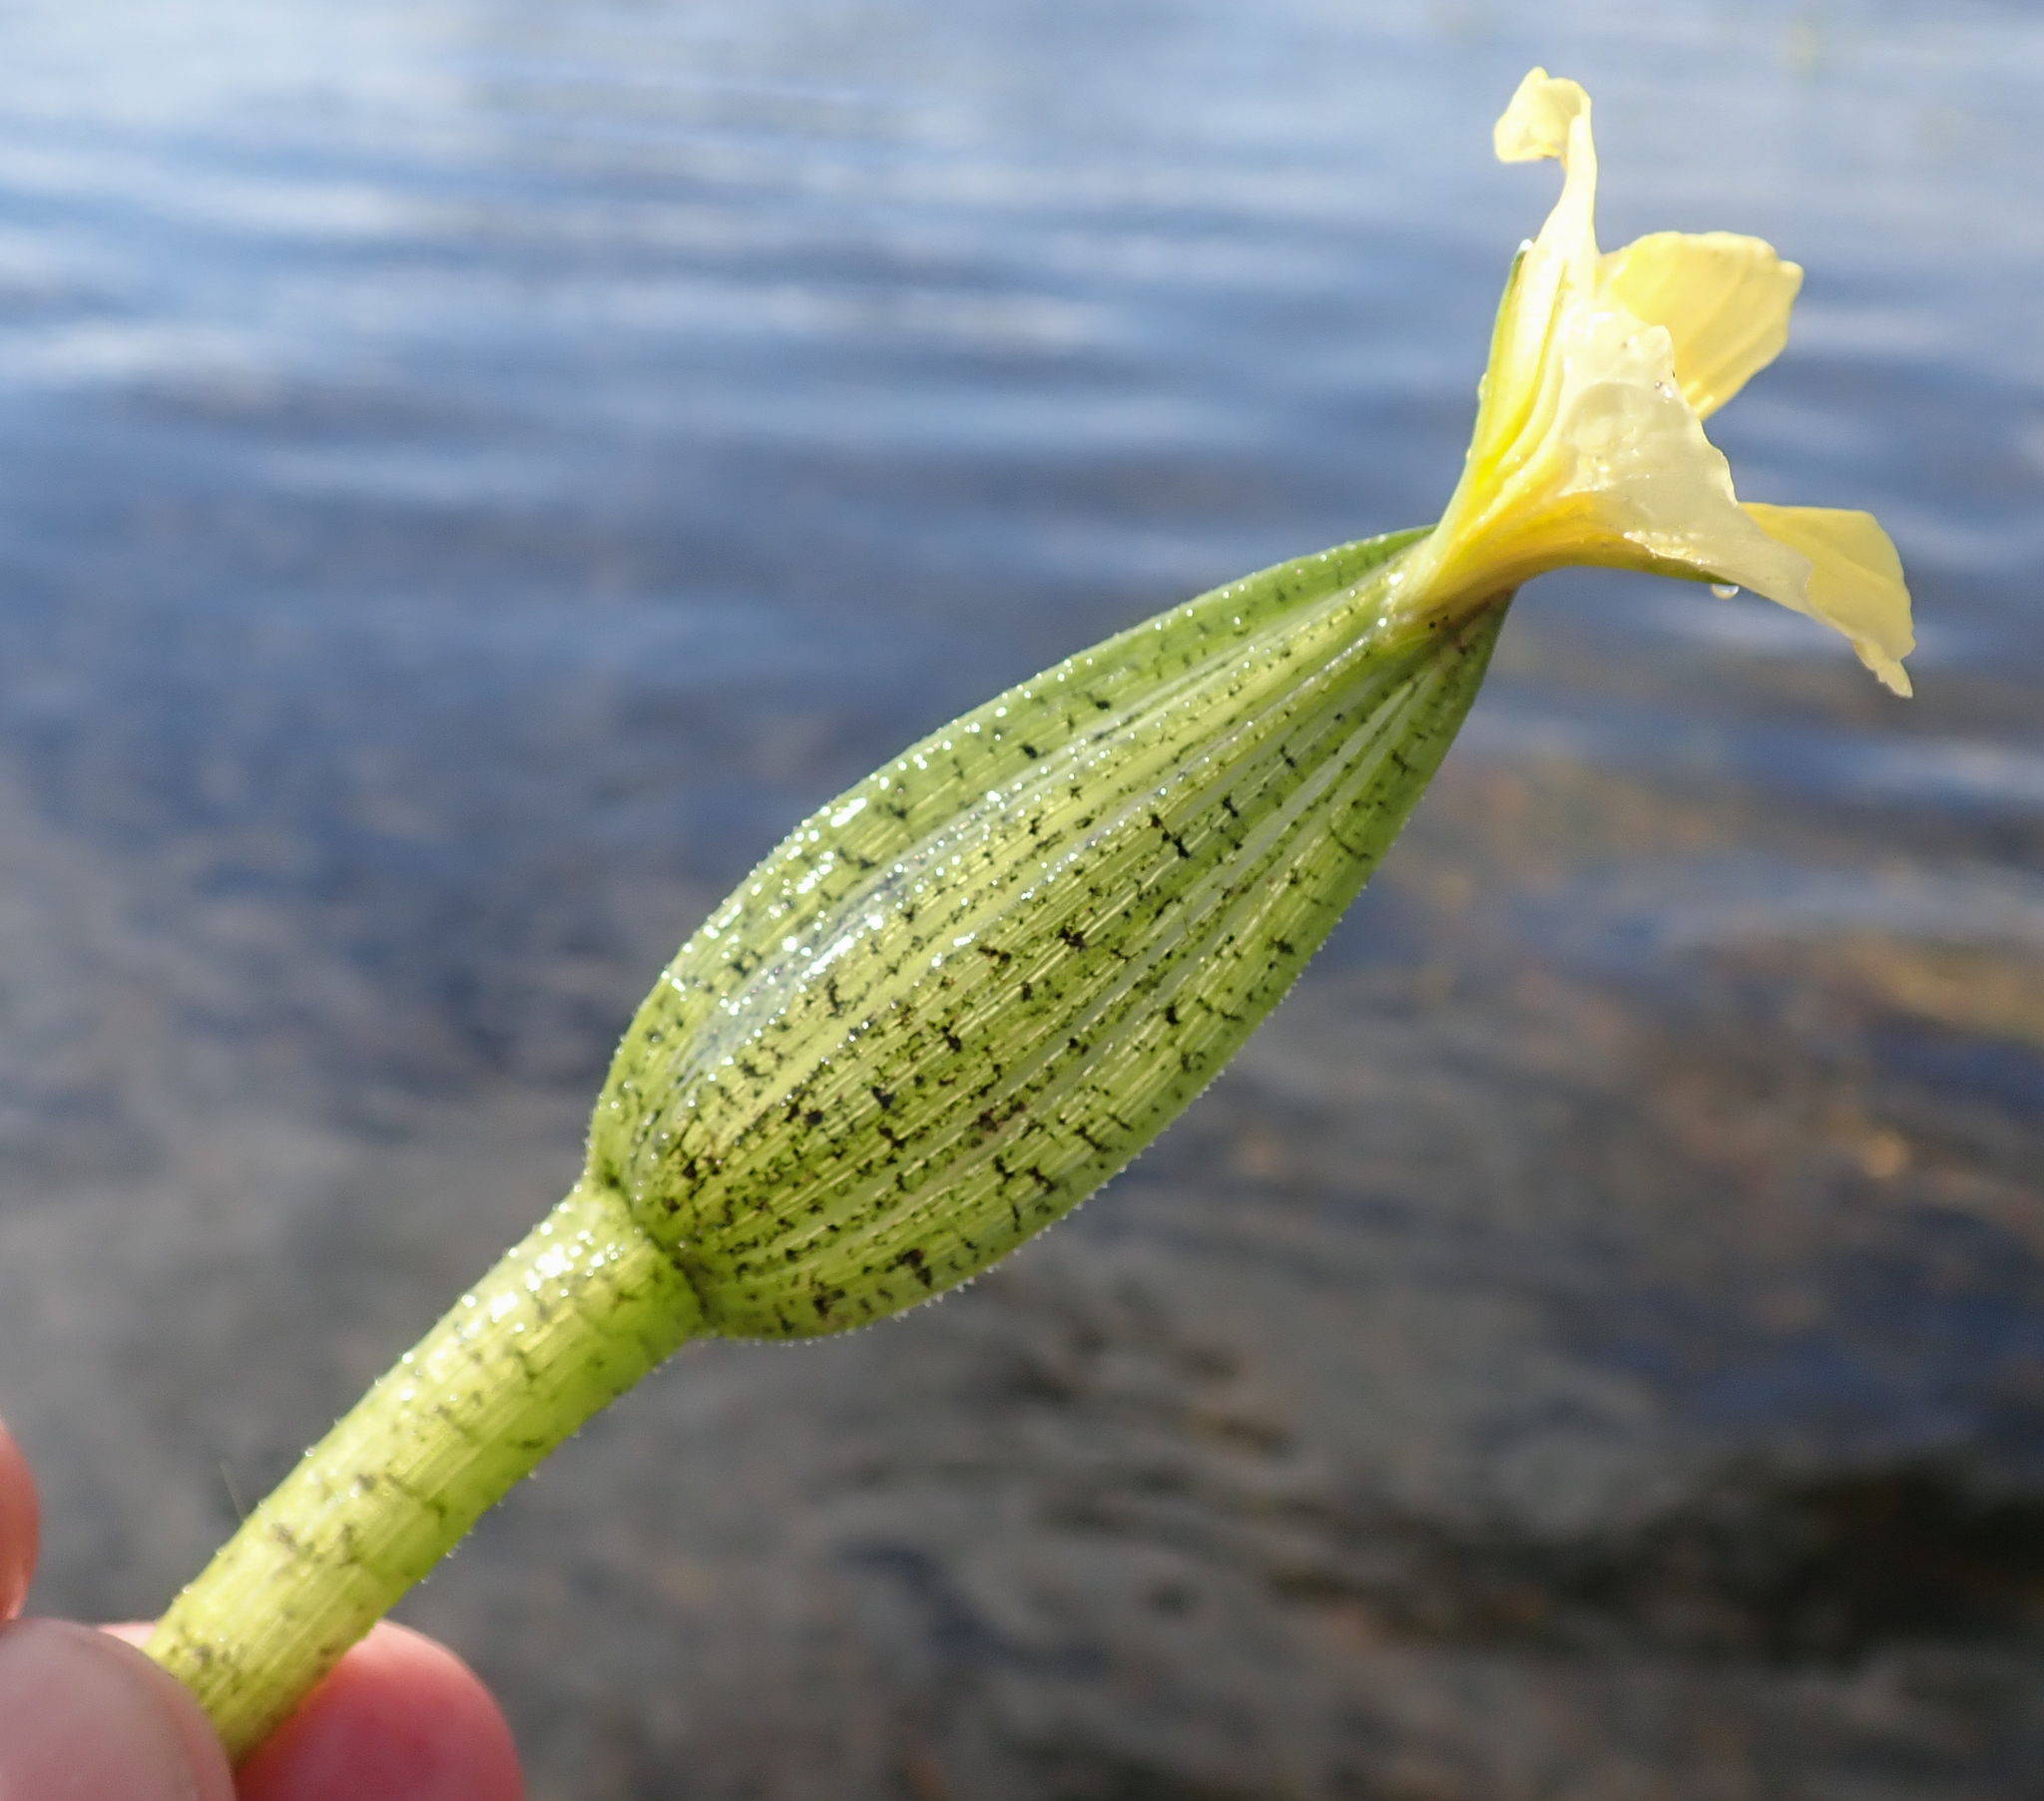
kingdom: Plantae
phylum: Tracheophyta
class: Liliopsida
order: Alismatales
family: Hydrocharitaceae
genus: Ottelia
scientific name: Ottelia ulvifolia
